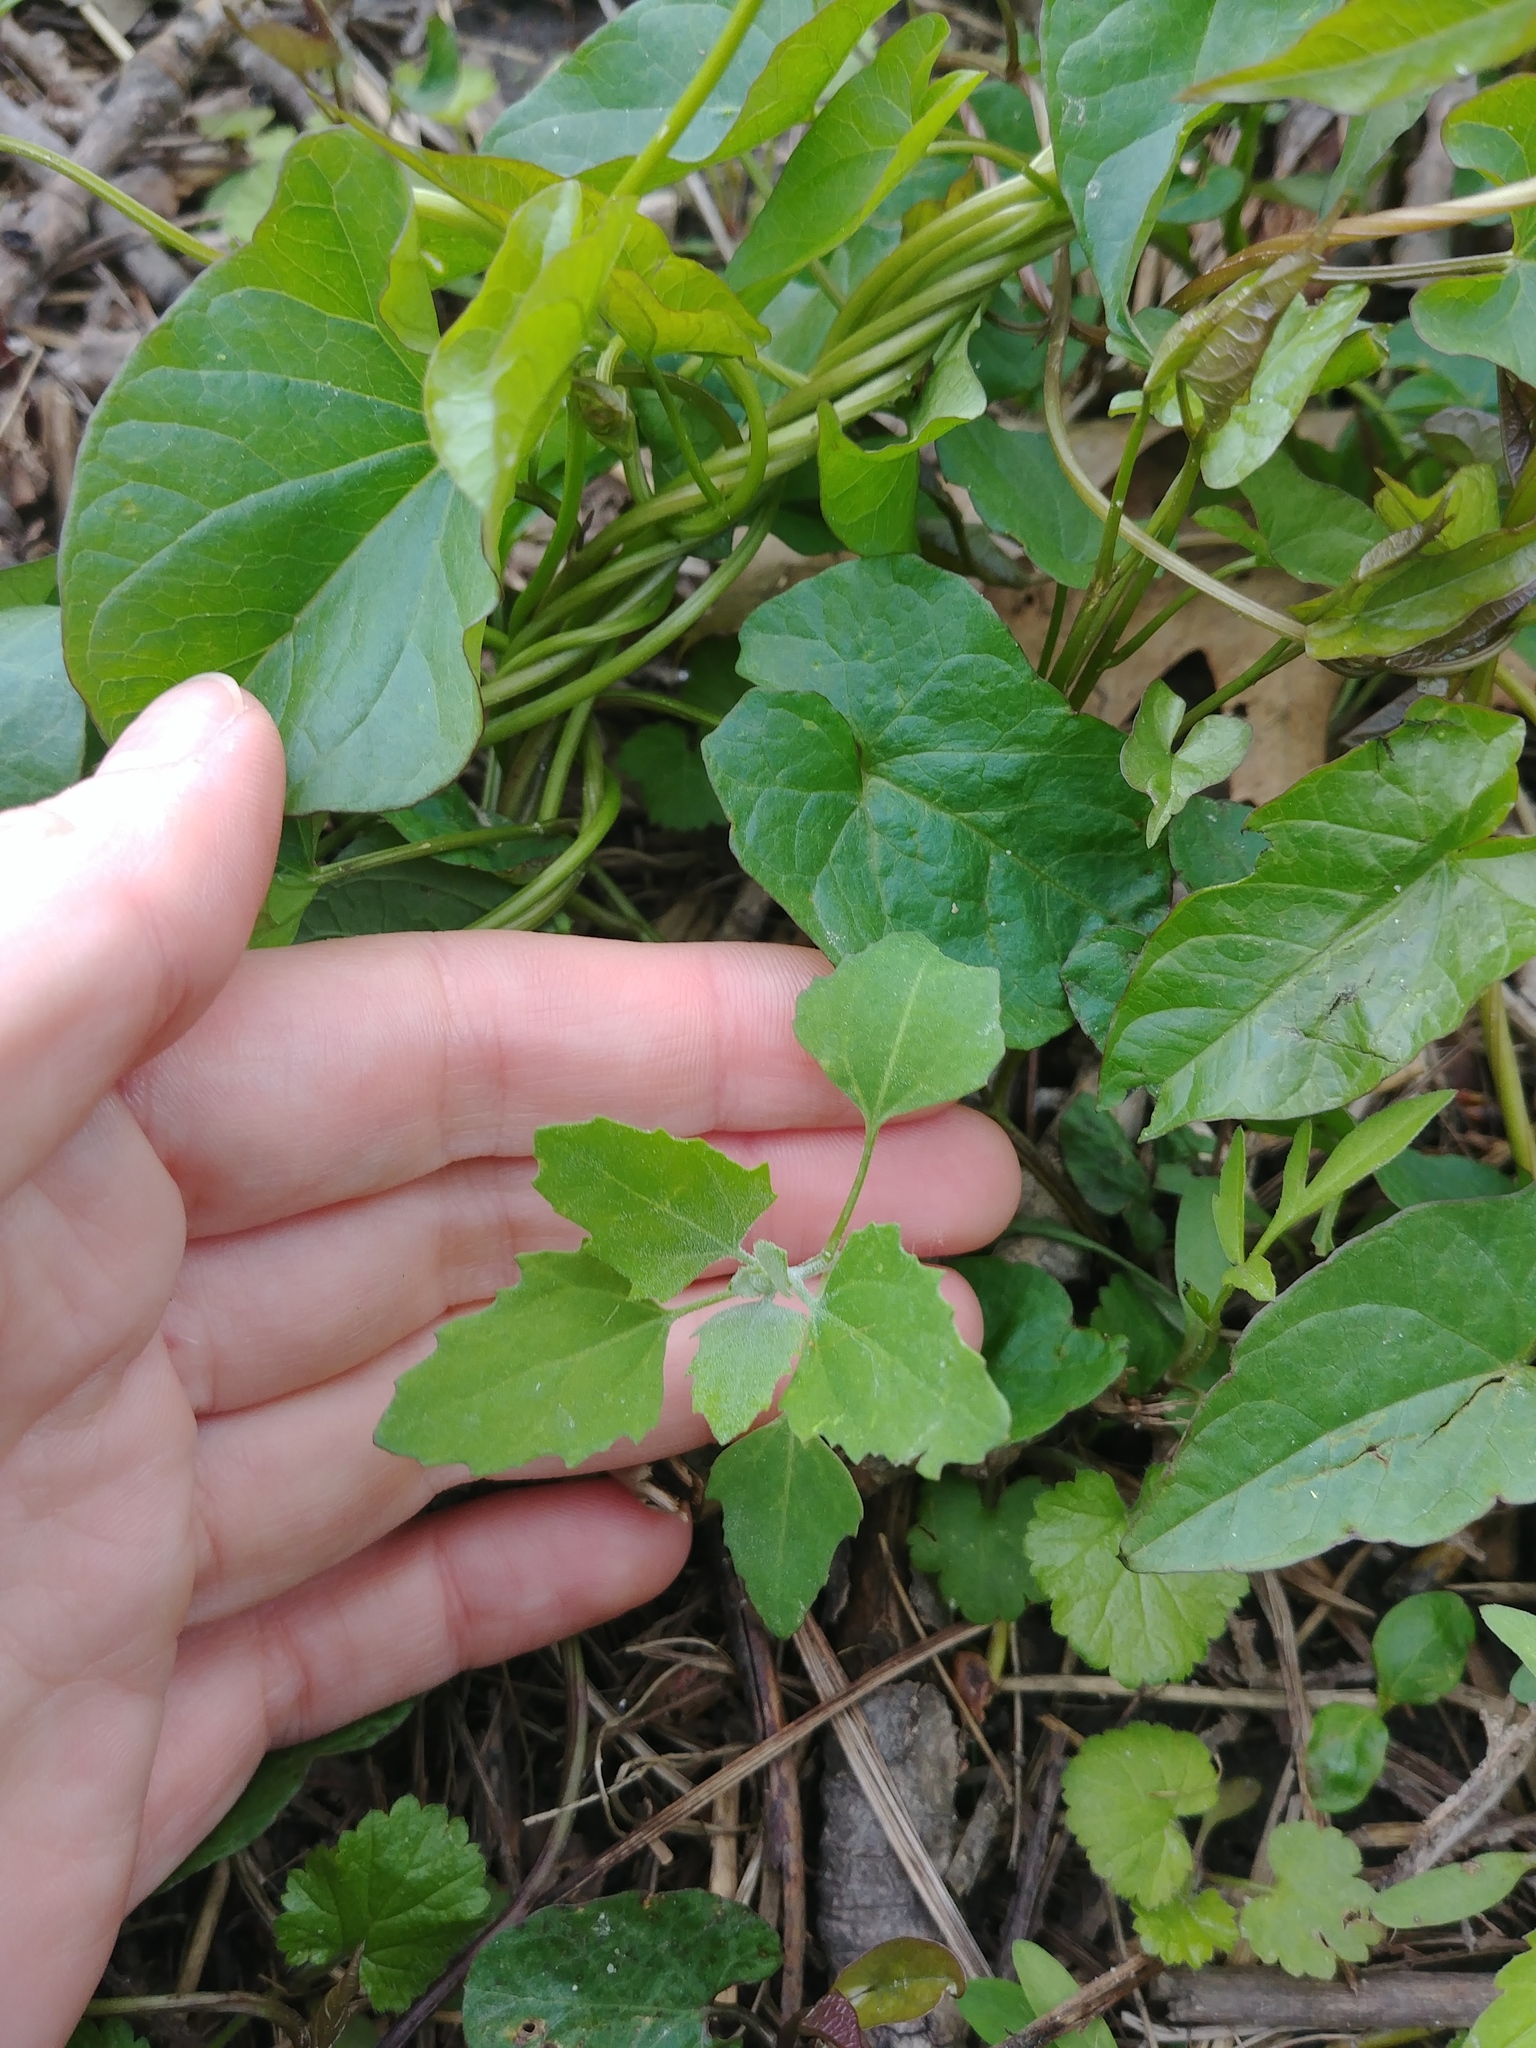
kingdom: Plantae
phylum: Tracheophyta
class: Magnoliopsida
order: Caryophyllales
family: Amaranthaceae
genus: Chenopodium
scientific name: Chenopodium album
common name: Fat-hen
